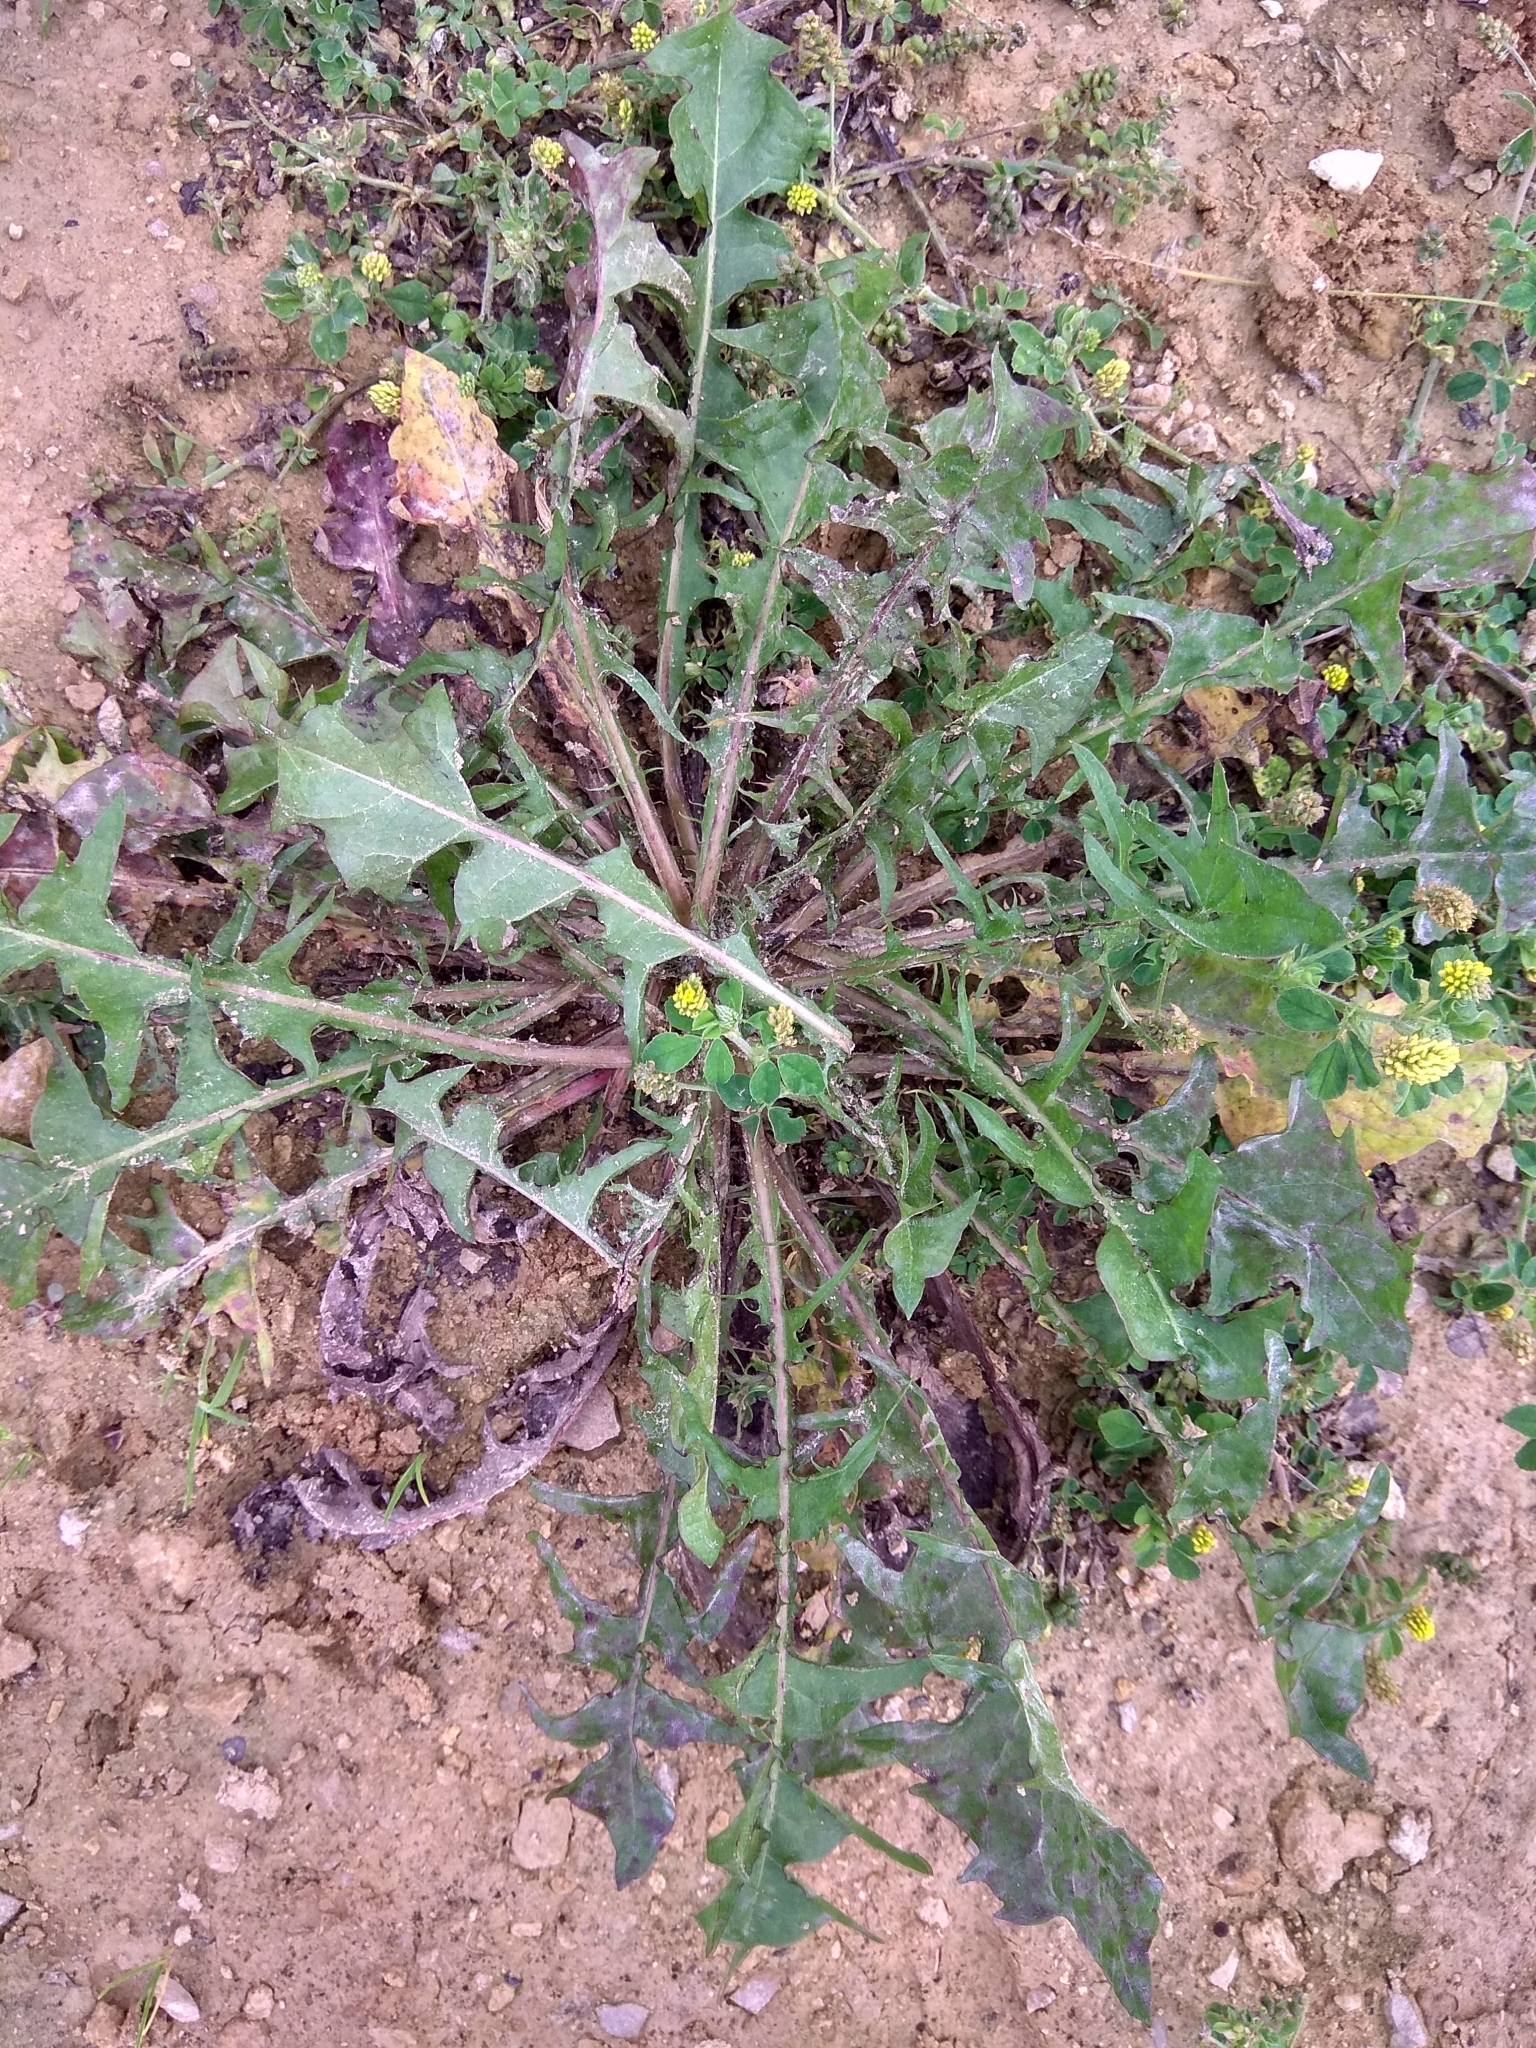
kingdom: Plantae
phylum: Tracheophyta
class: Magnoliopsida
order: Asterales
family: Asteraceae
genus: Taraxacum
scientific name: Taraxacum officinale
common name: Common dandelion
